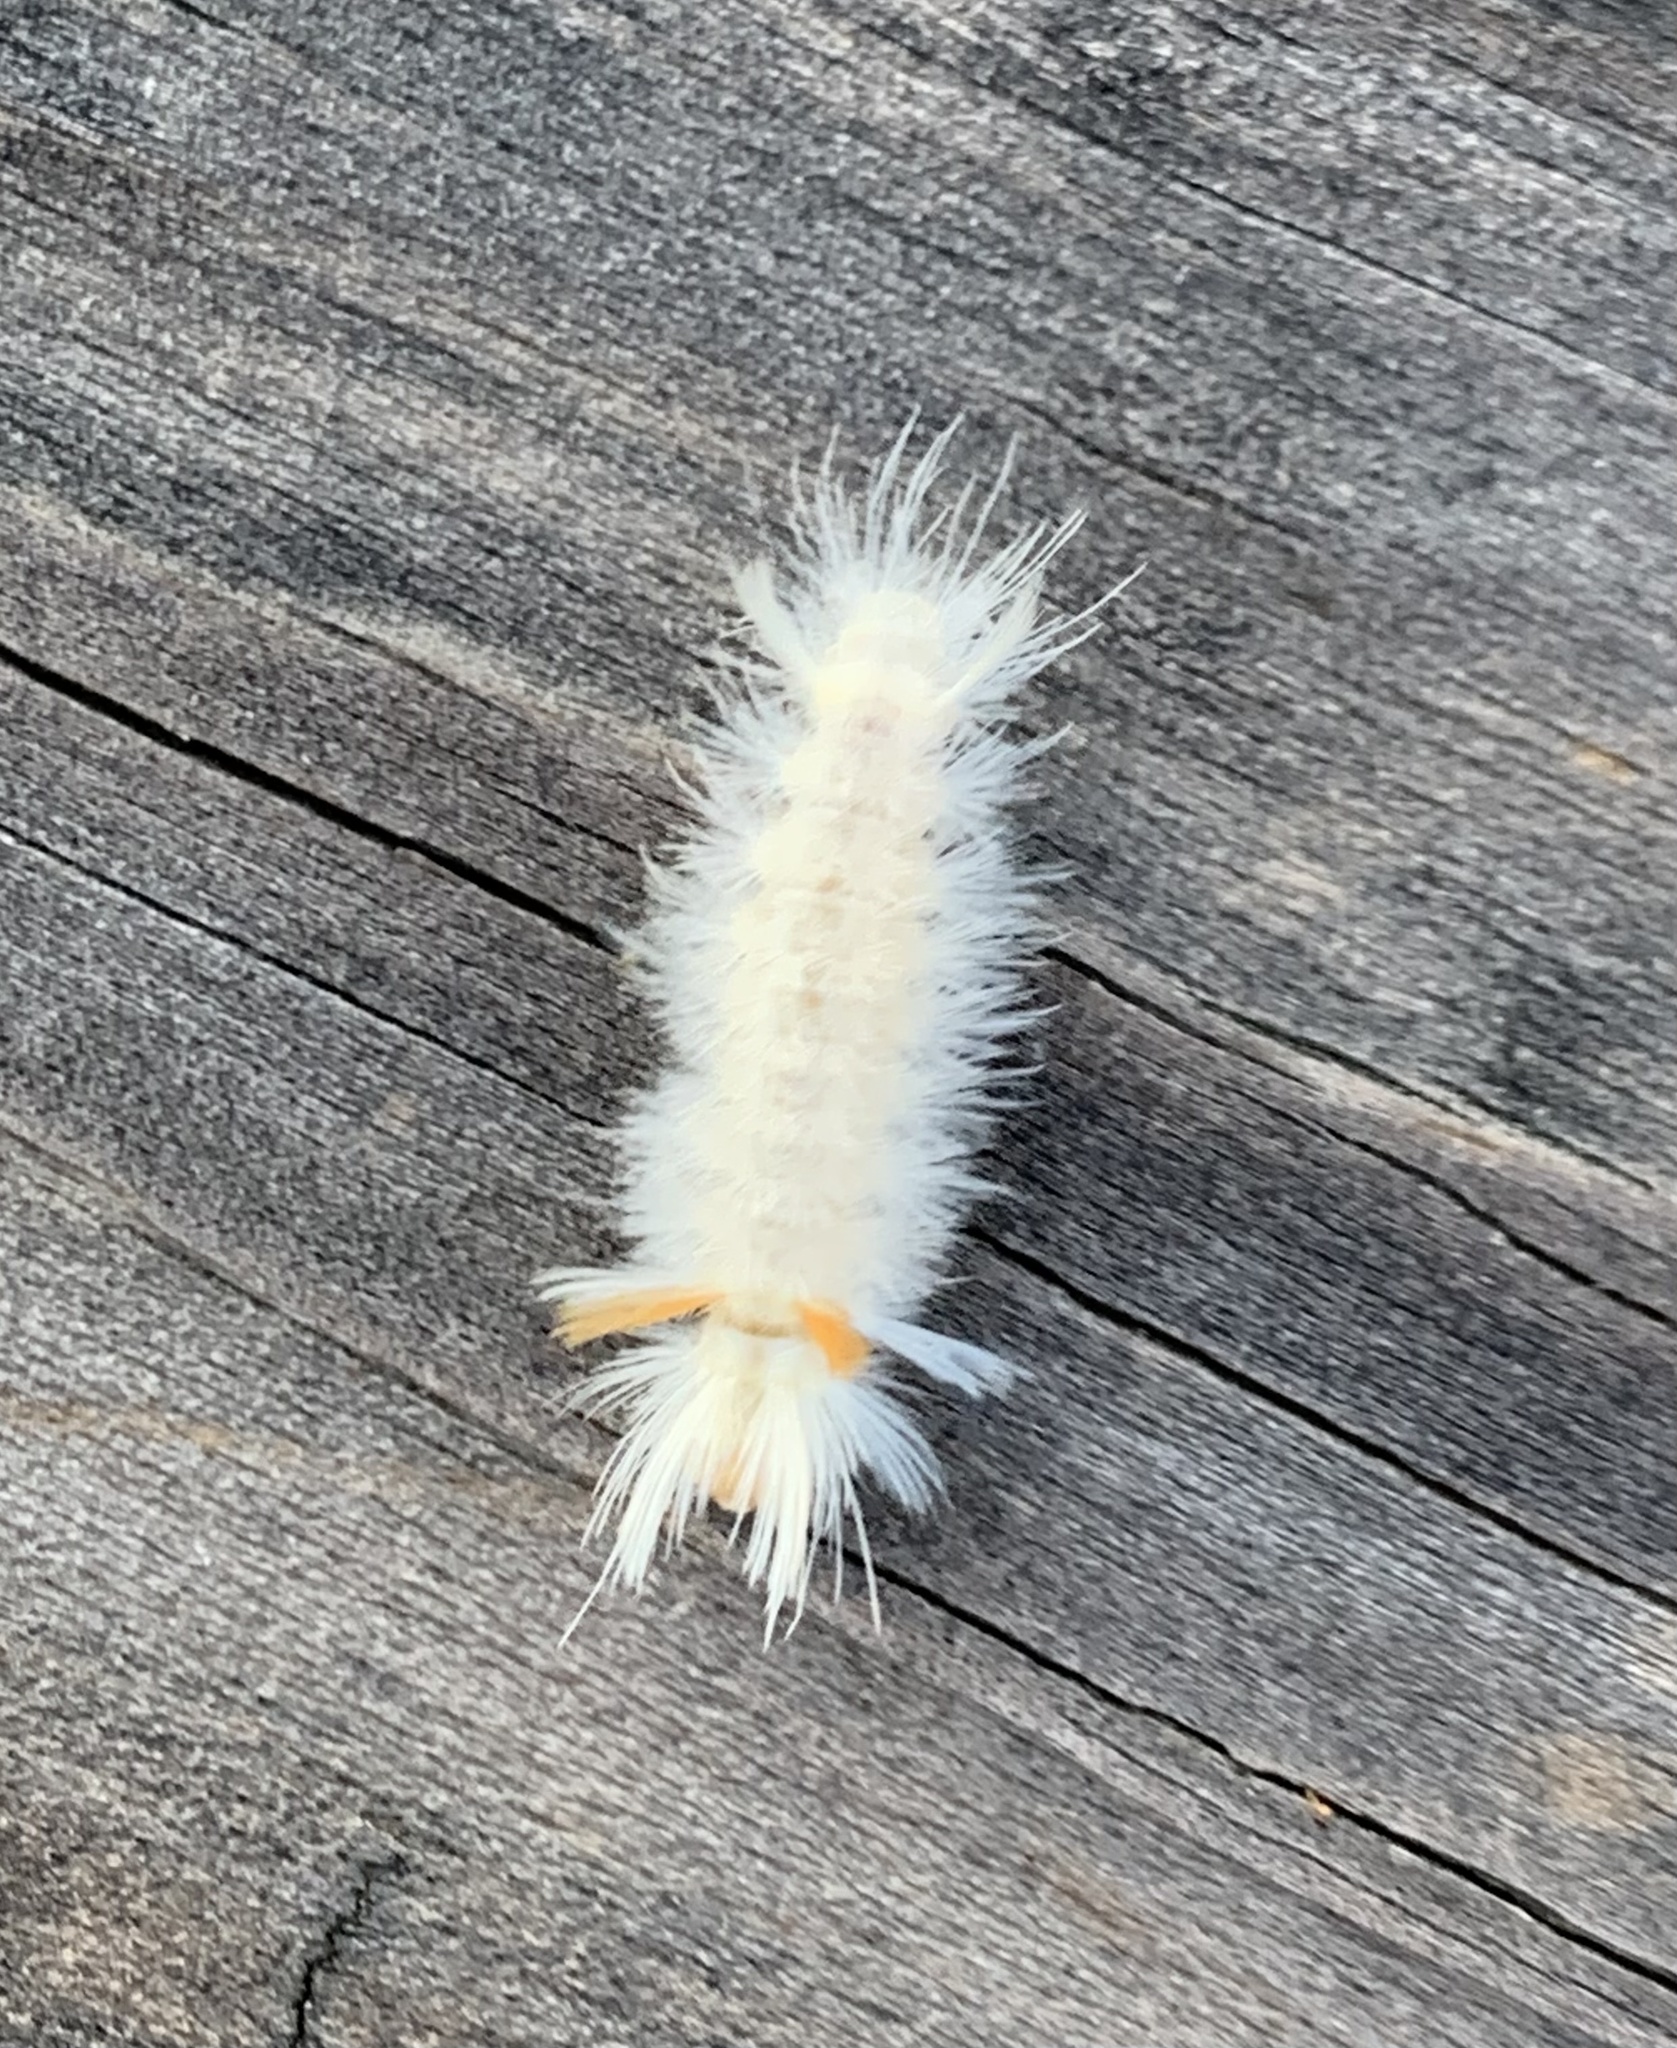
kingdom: Animalia
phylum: Arthropoda
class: Insecta
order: Lepidoptera
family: Erebidae
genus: Halysidota
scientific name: Halysidota harrisii
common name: Sycamore tussock moth
